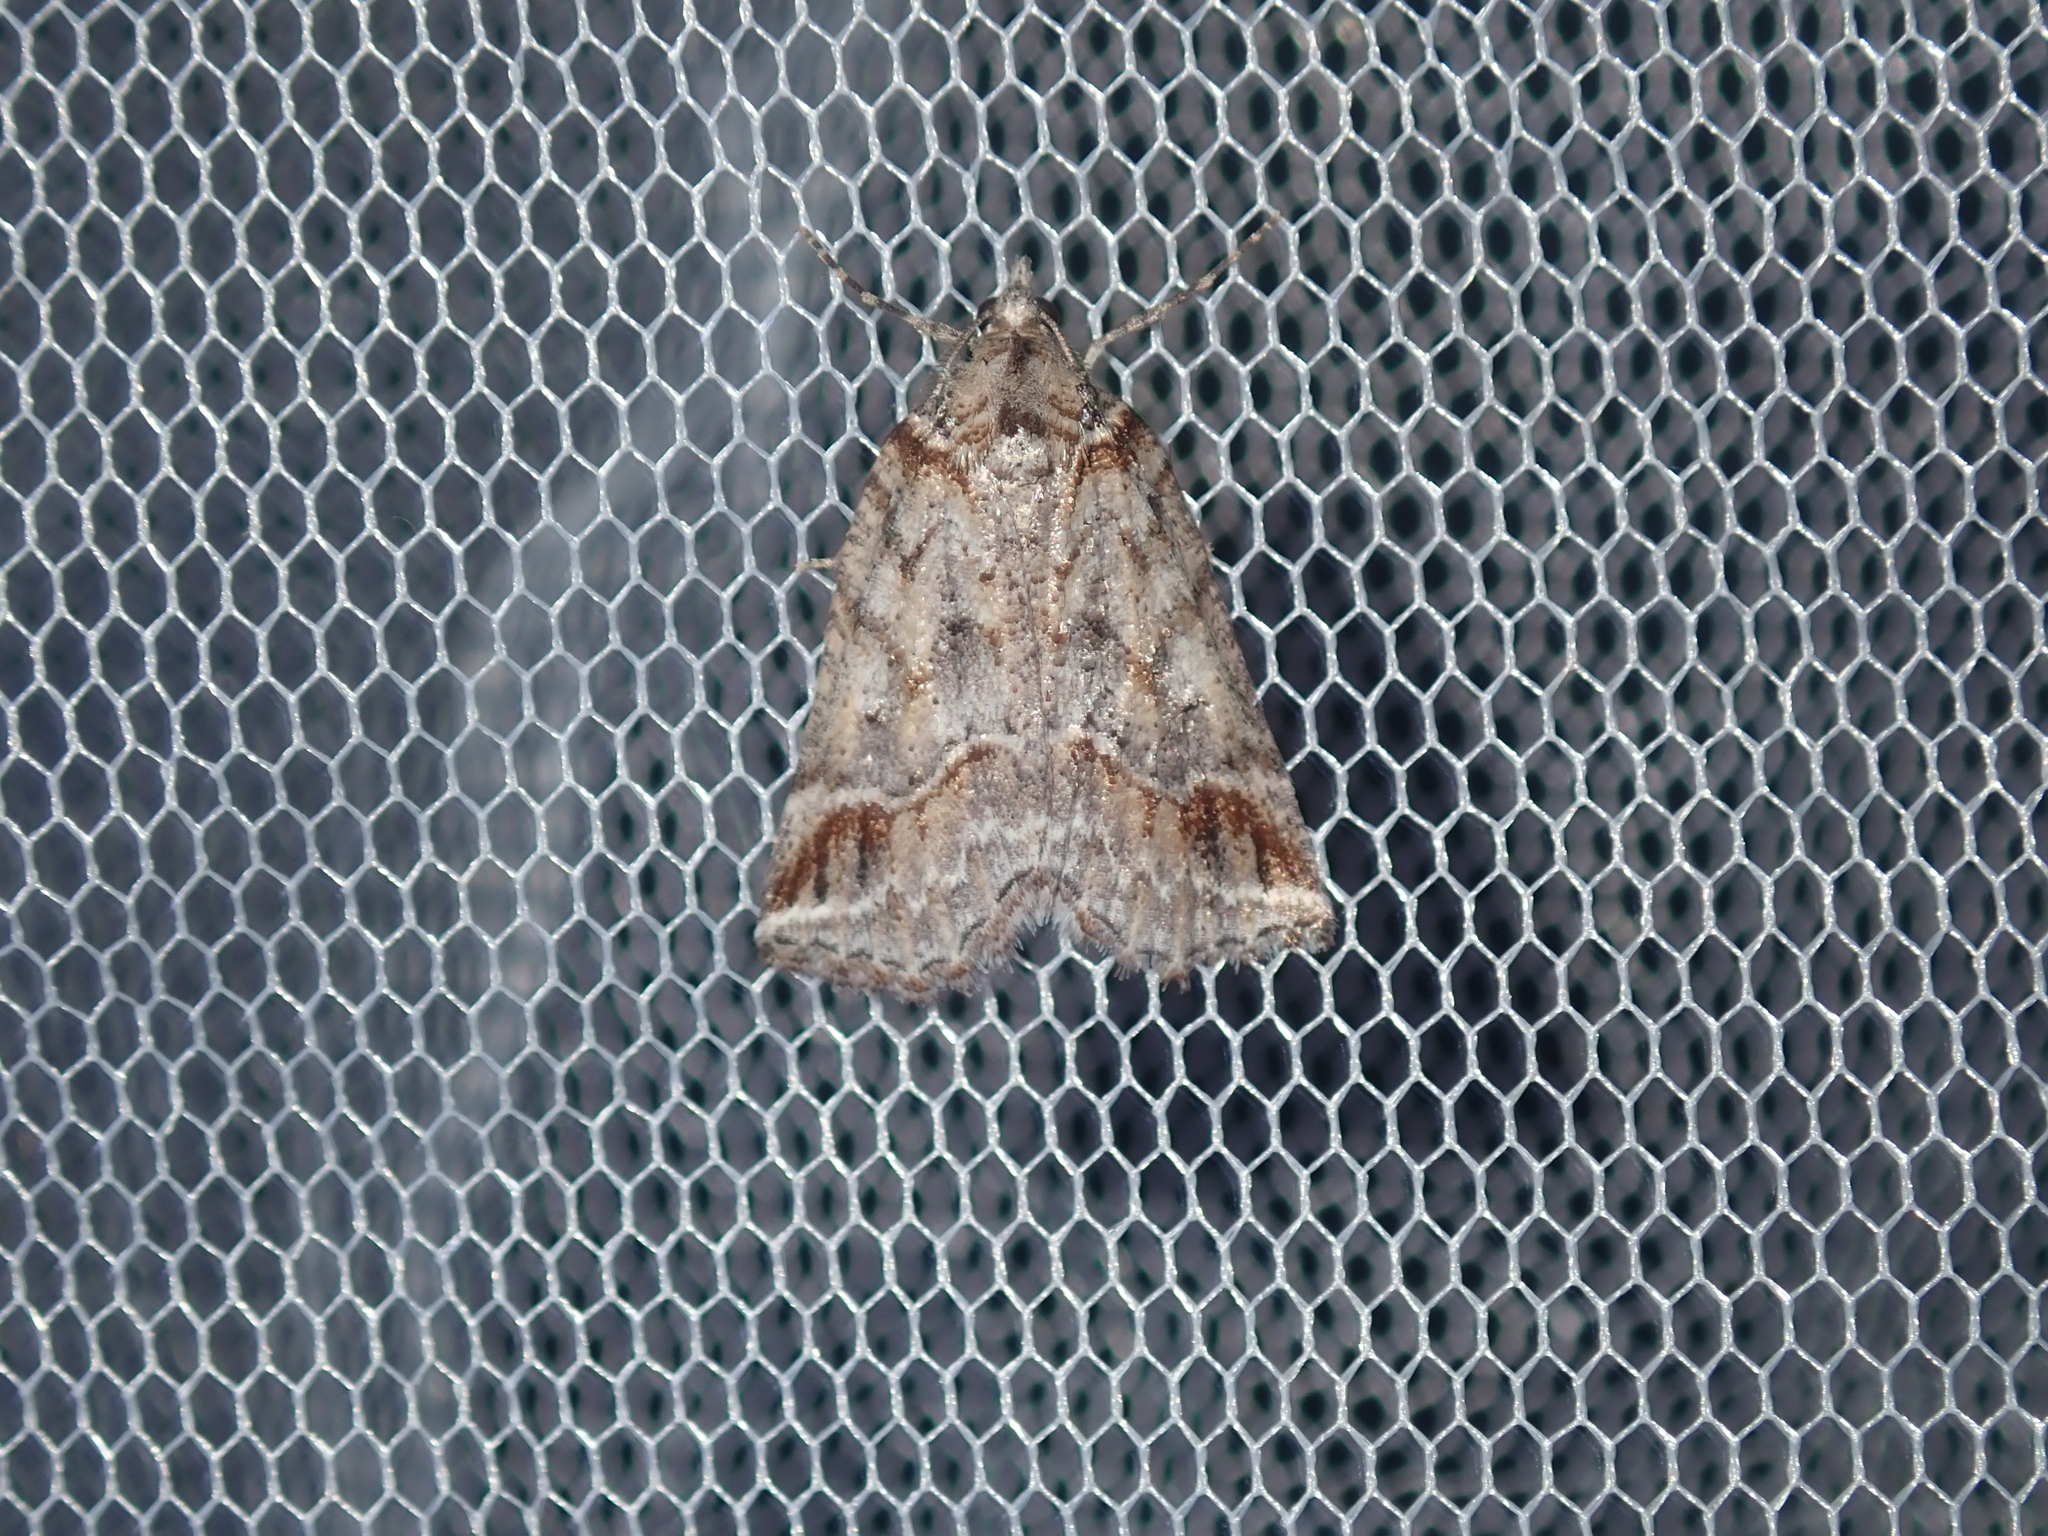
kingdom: Animalia
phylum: Arthropoda
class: Insecta
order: Lepidoptera
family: Geometridae
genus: Plesiolaea
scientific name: Plesiolaea promacha
